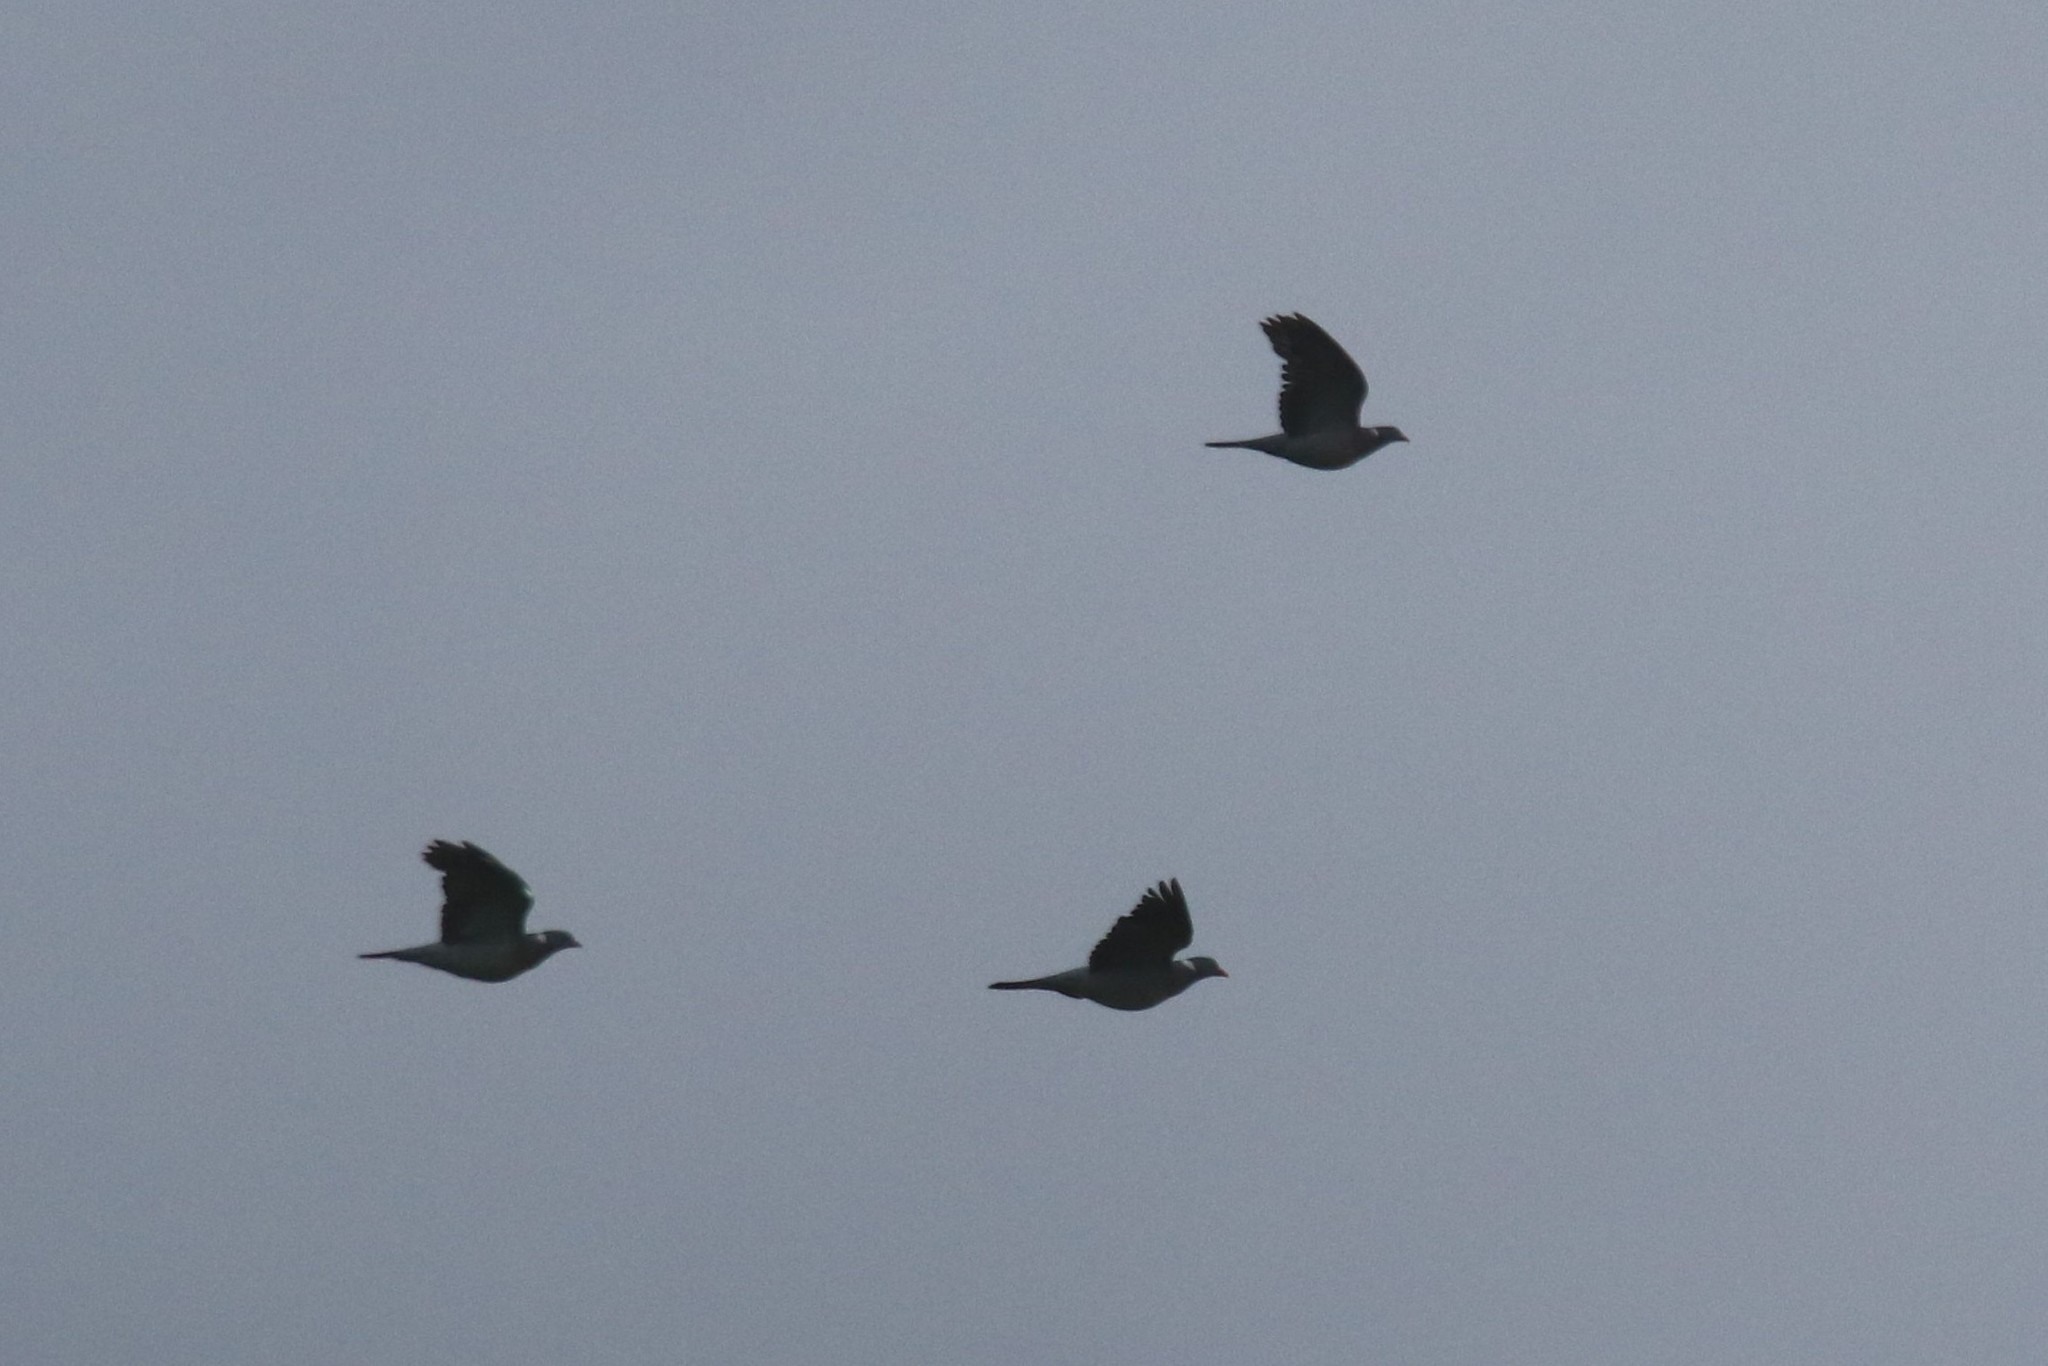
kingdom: Animalia
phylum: Chordata
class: Aves
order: Columbiformes
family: Columbidae
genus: Columba
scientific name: Columba palumbus
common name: Common wood pigeon
